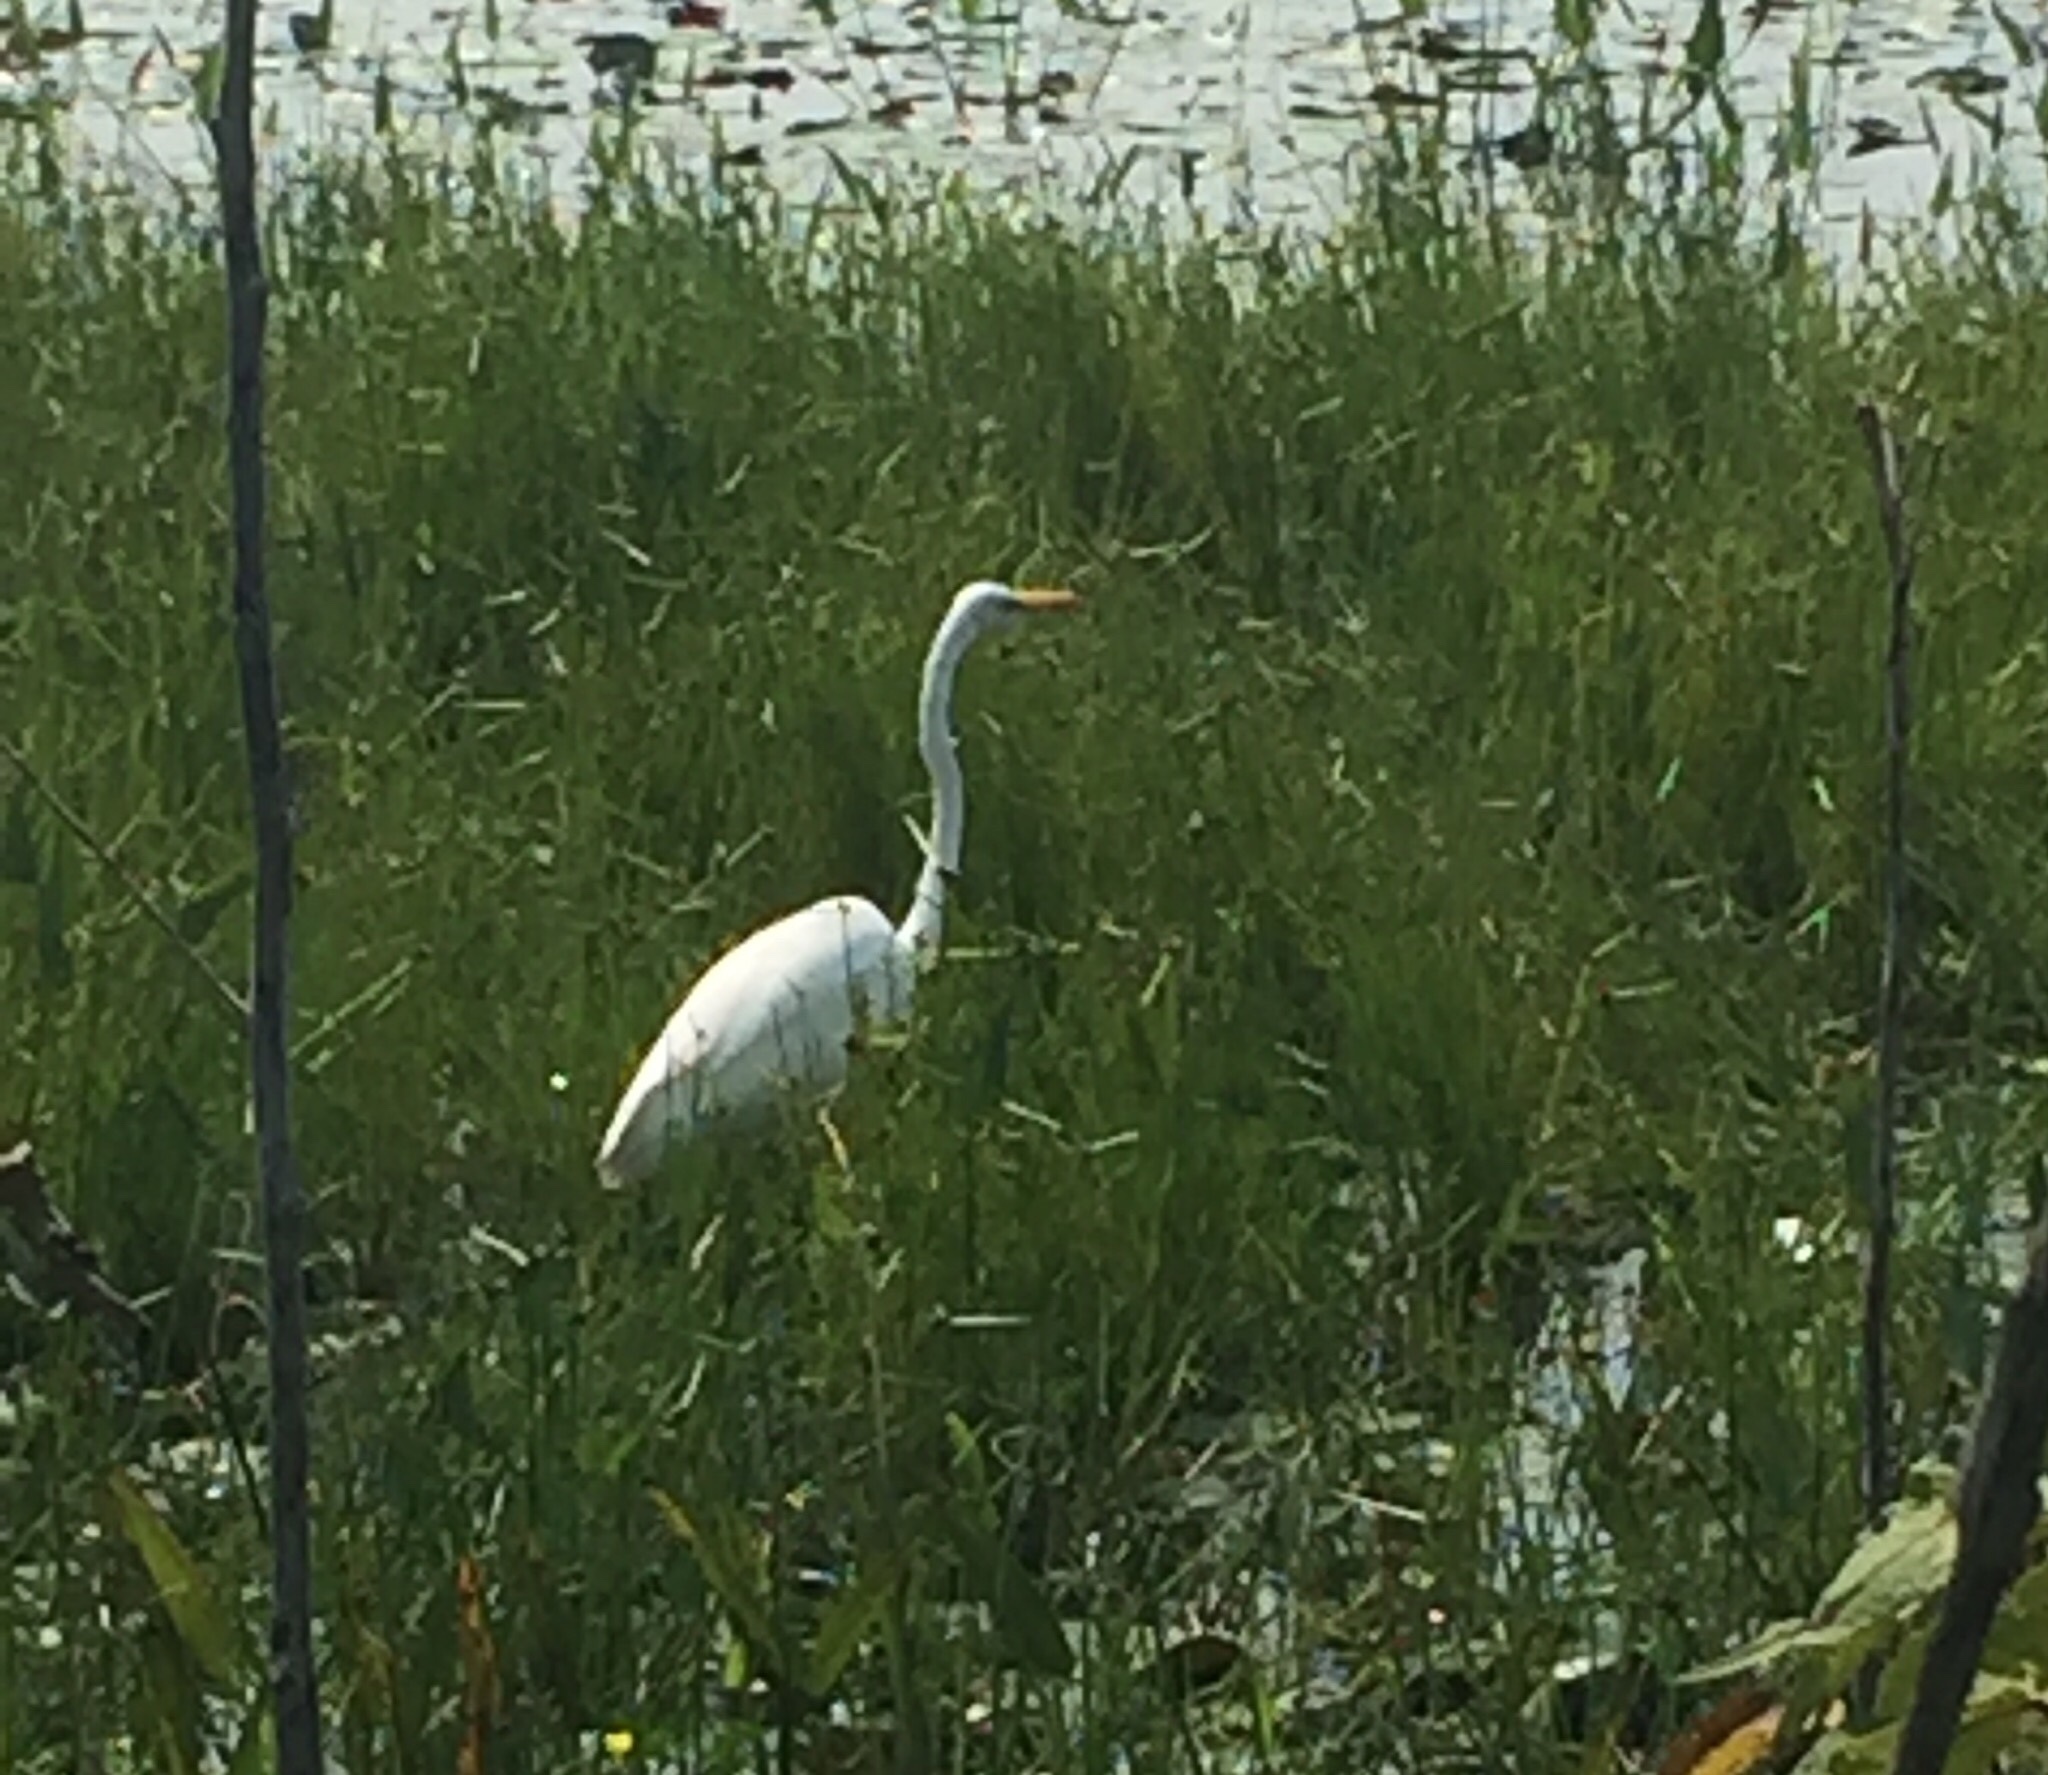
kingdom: Animalia
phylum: Chordata
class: Aves
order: Pelecaniformes
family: Ardeidae
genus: Ardea
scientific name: Ardea alba
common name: Great egret
